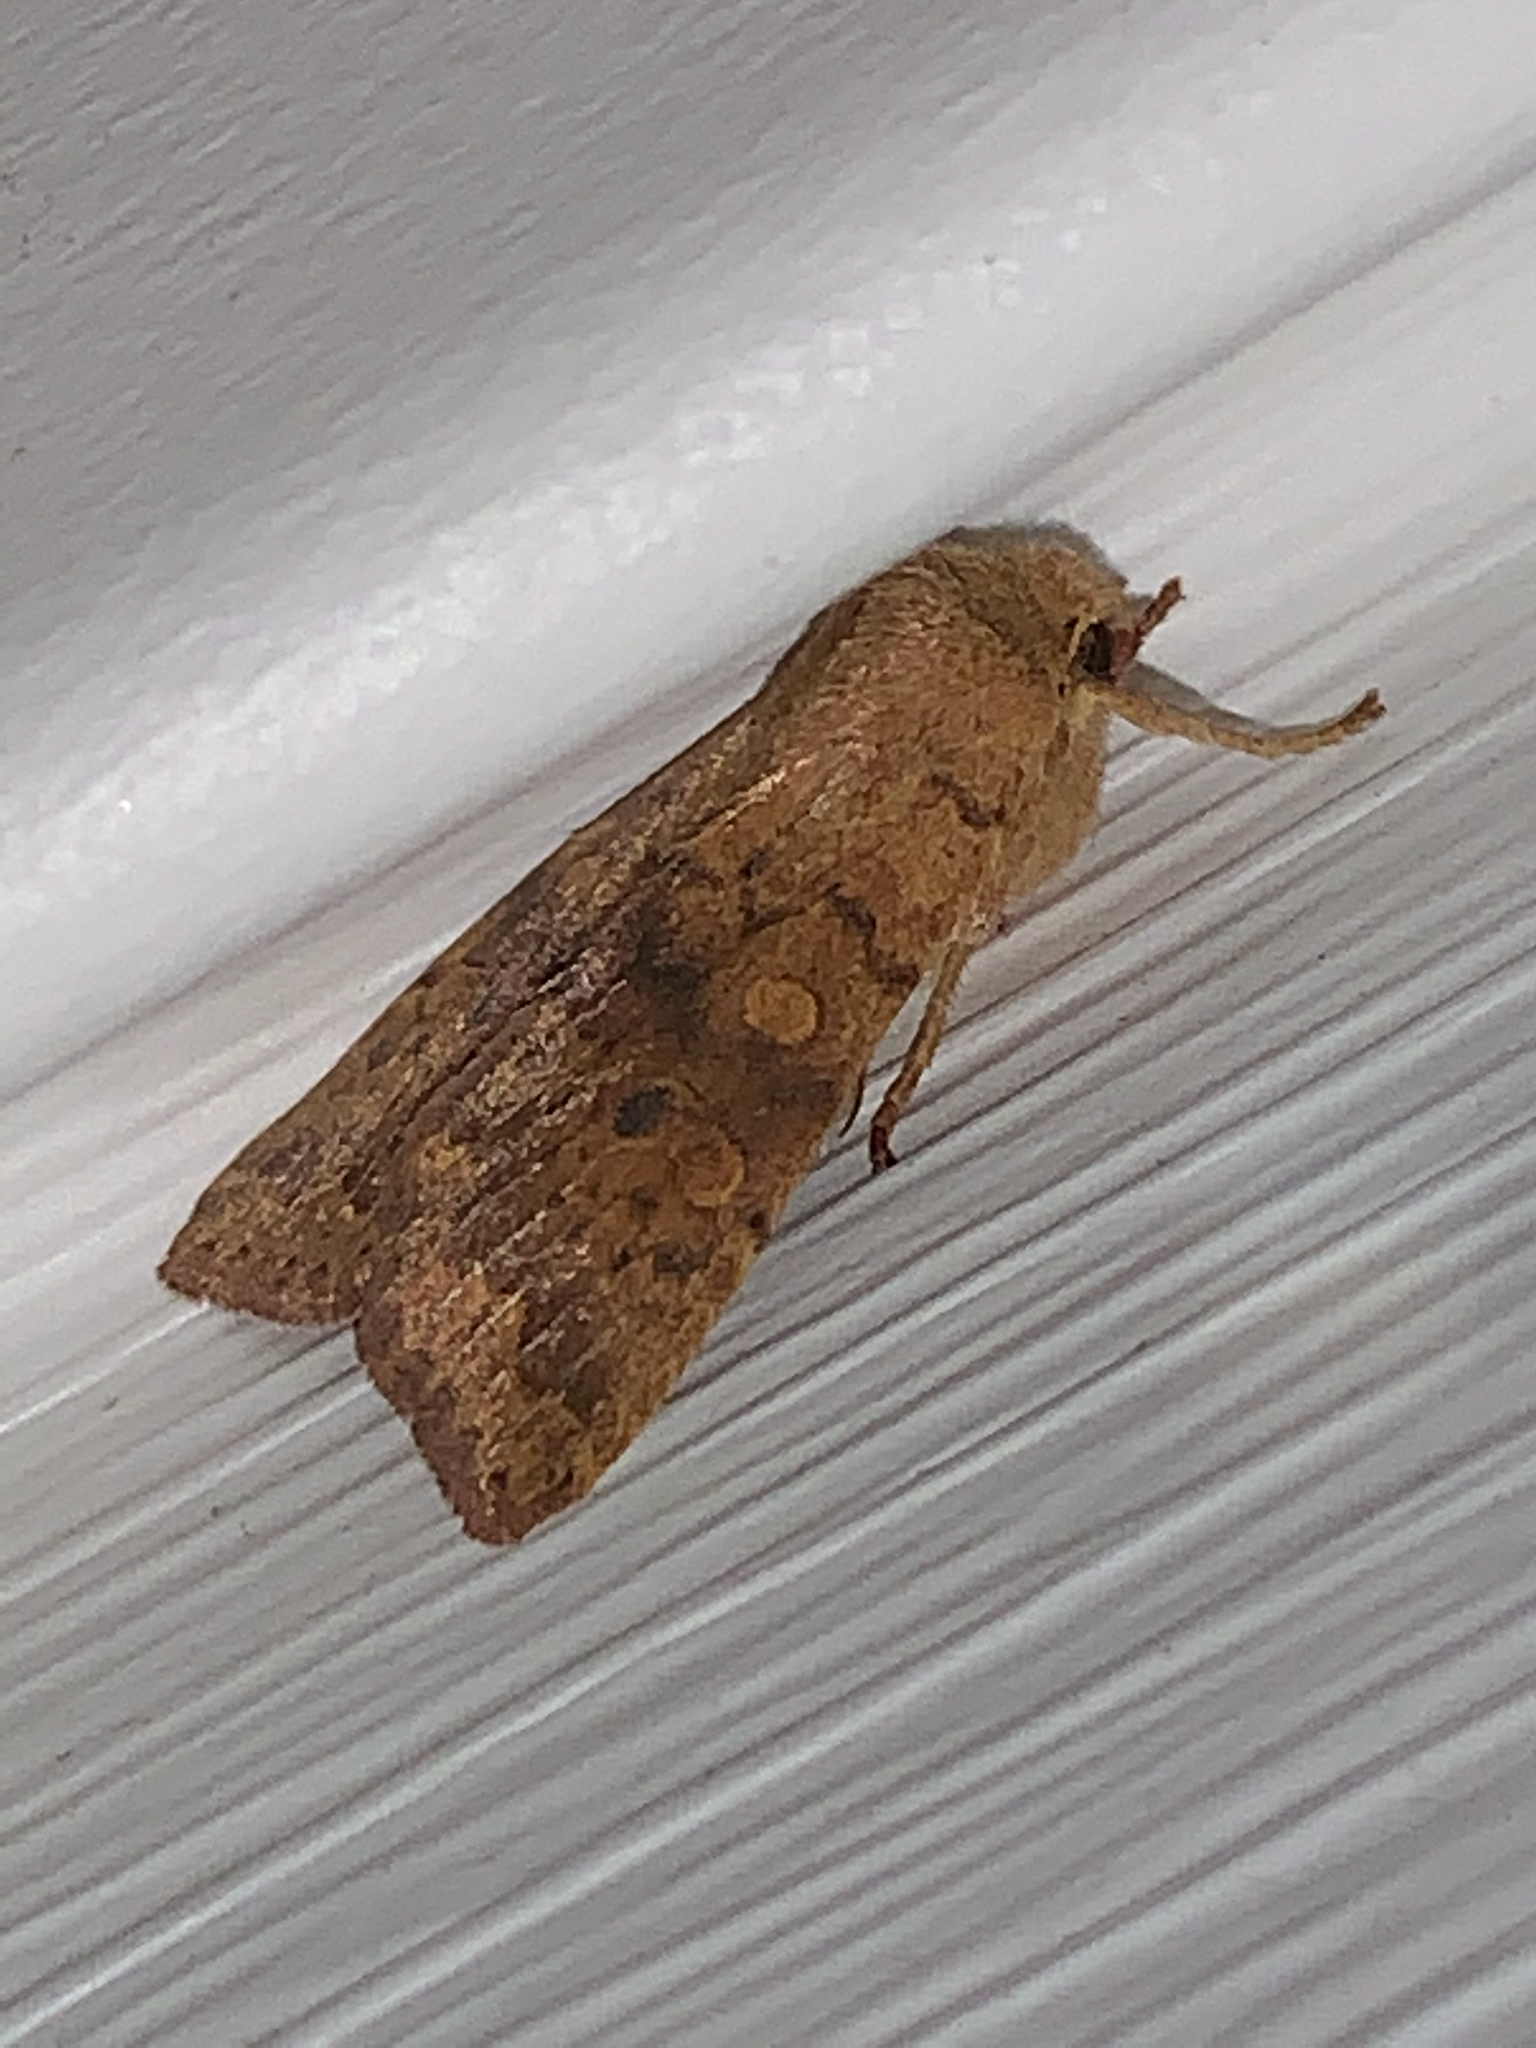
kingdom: Animalia
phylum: Arthropoda
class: Insecta
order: Lepidoptera
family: Noctuidae
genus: Agrochola
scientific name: Agrochola bicolorago
